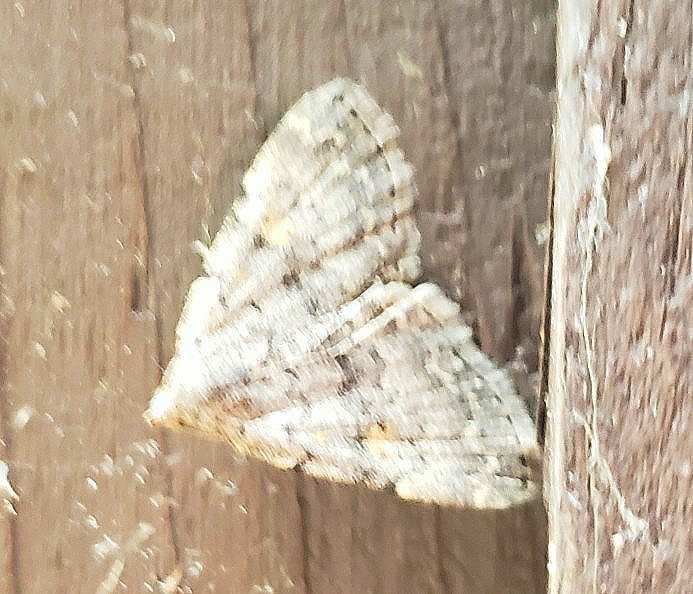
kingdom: Animalia
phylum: Arthropoda
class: Insecta
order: Lepidoptera
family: Erebidae
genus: Idia
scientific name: Idia aemula
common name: Common idia moth
